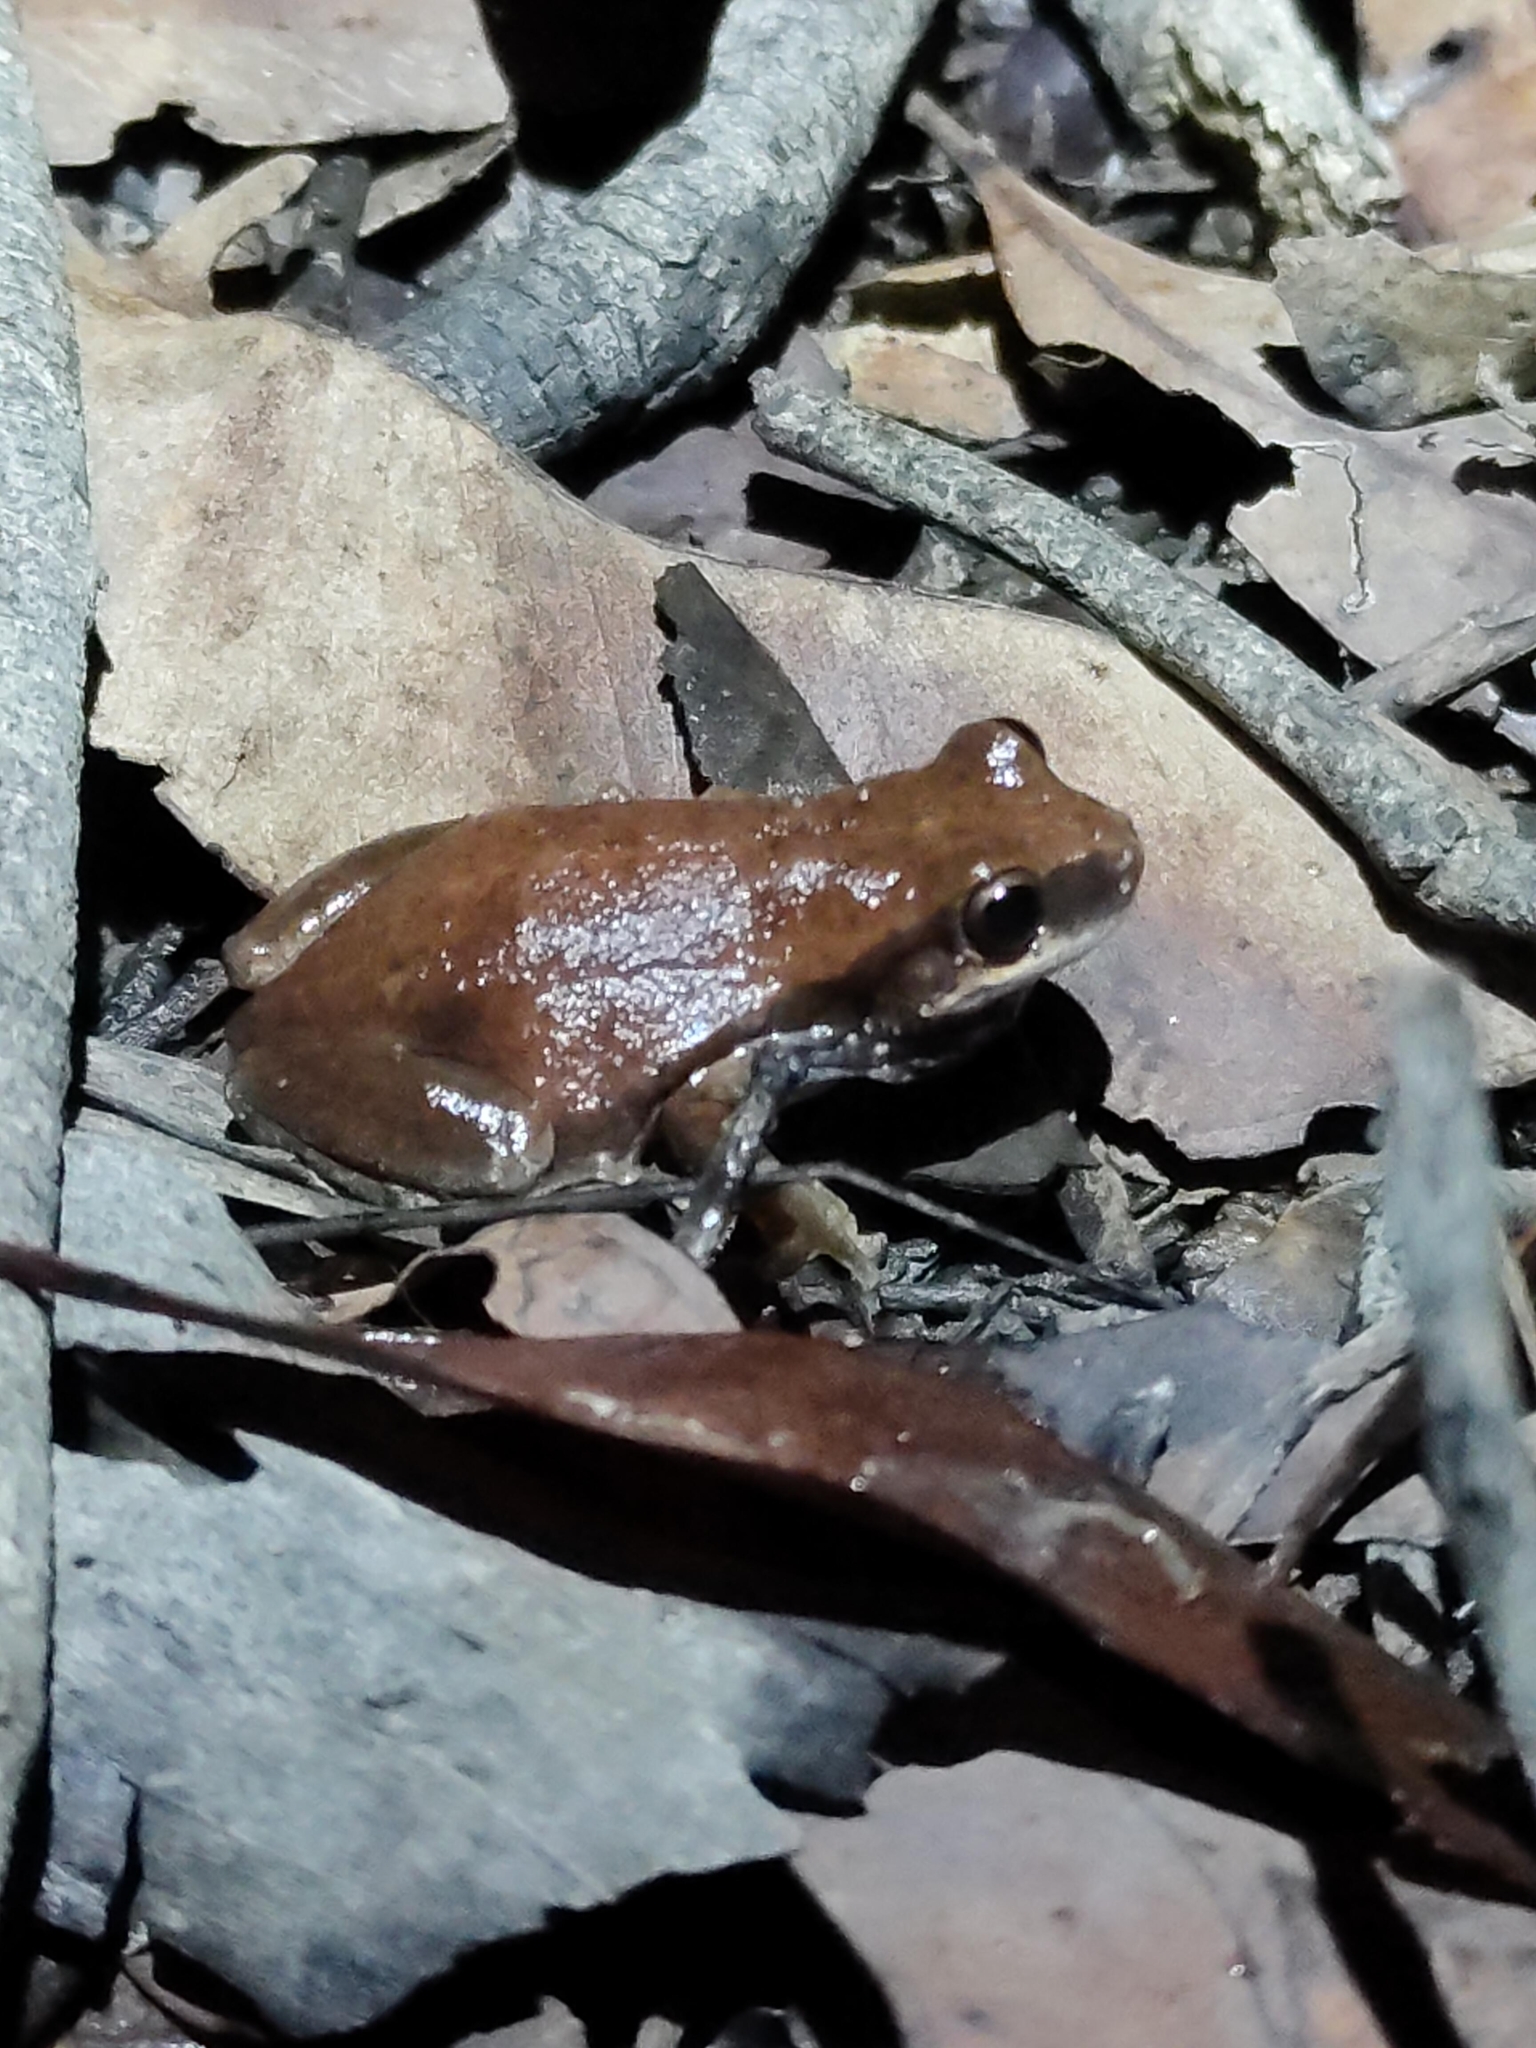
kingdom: Animalia
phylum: Chordata
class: Amphibia
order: Anura
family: Pelodryadidae
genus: Litoria
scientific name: Litoria rubella
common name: Desert tree frog
